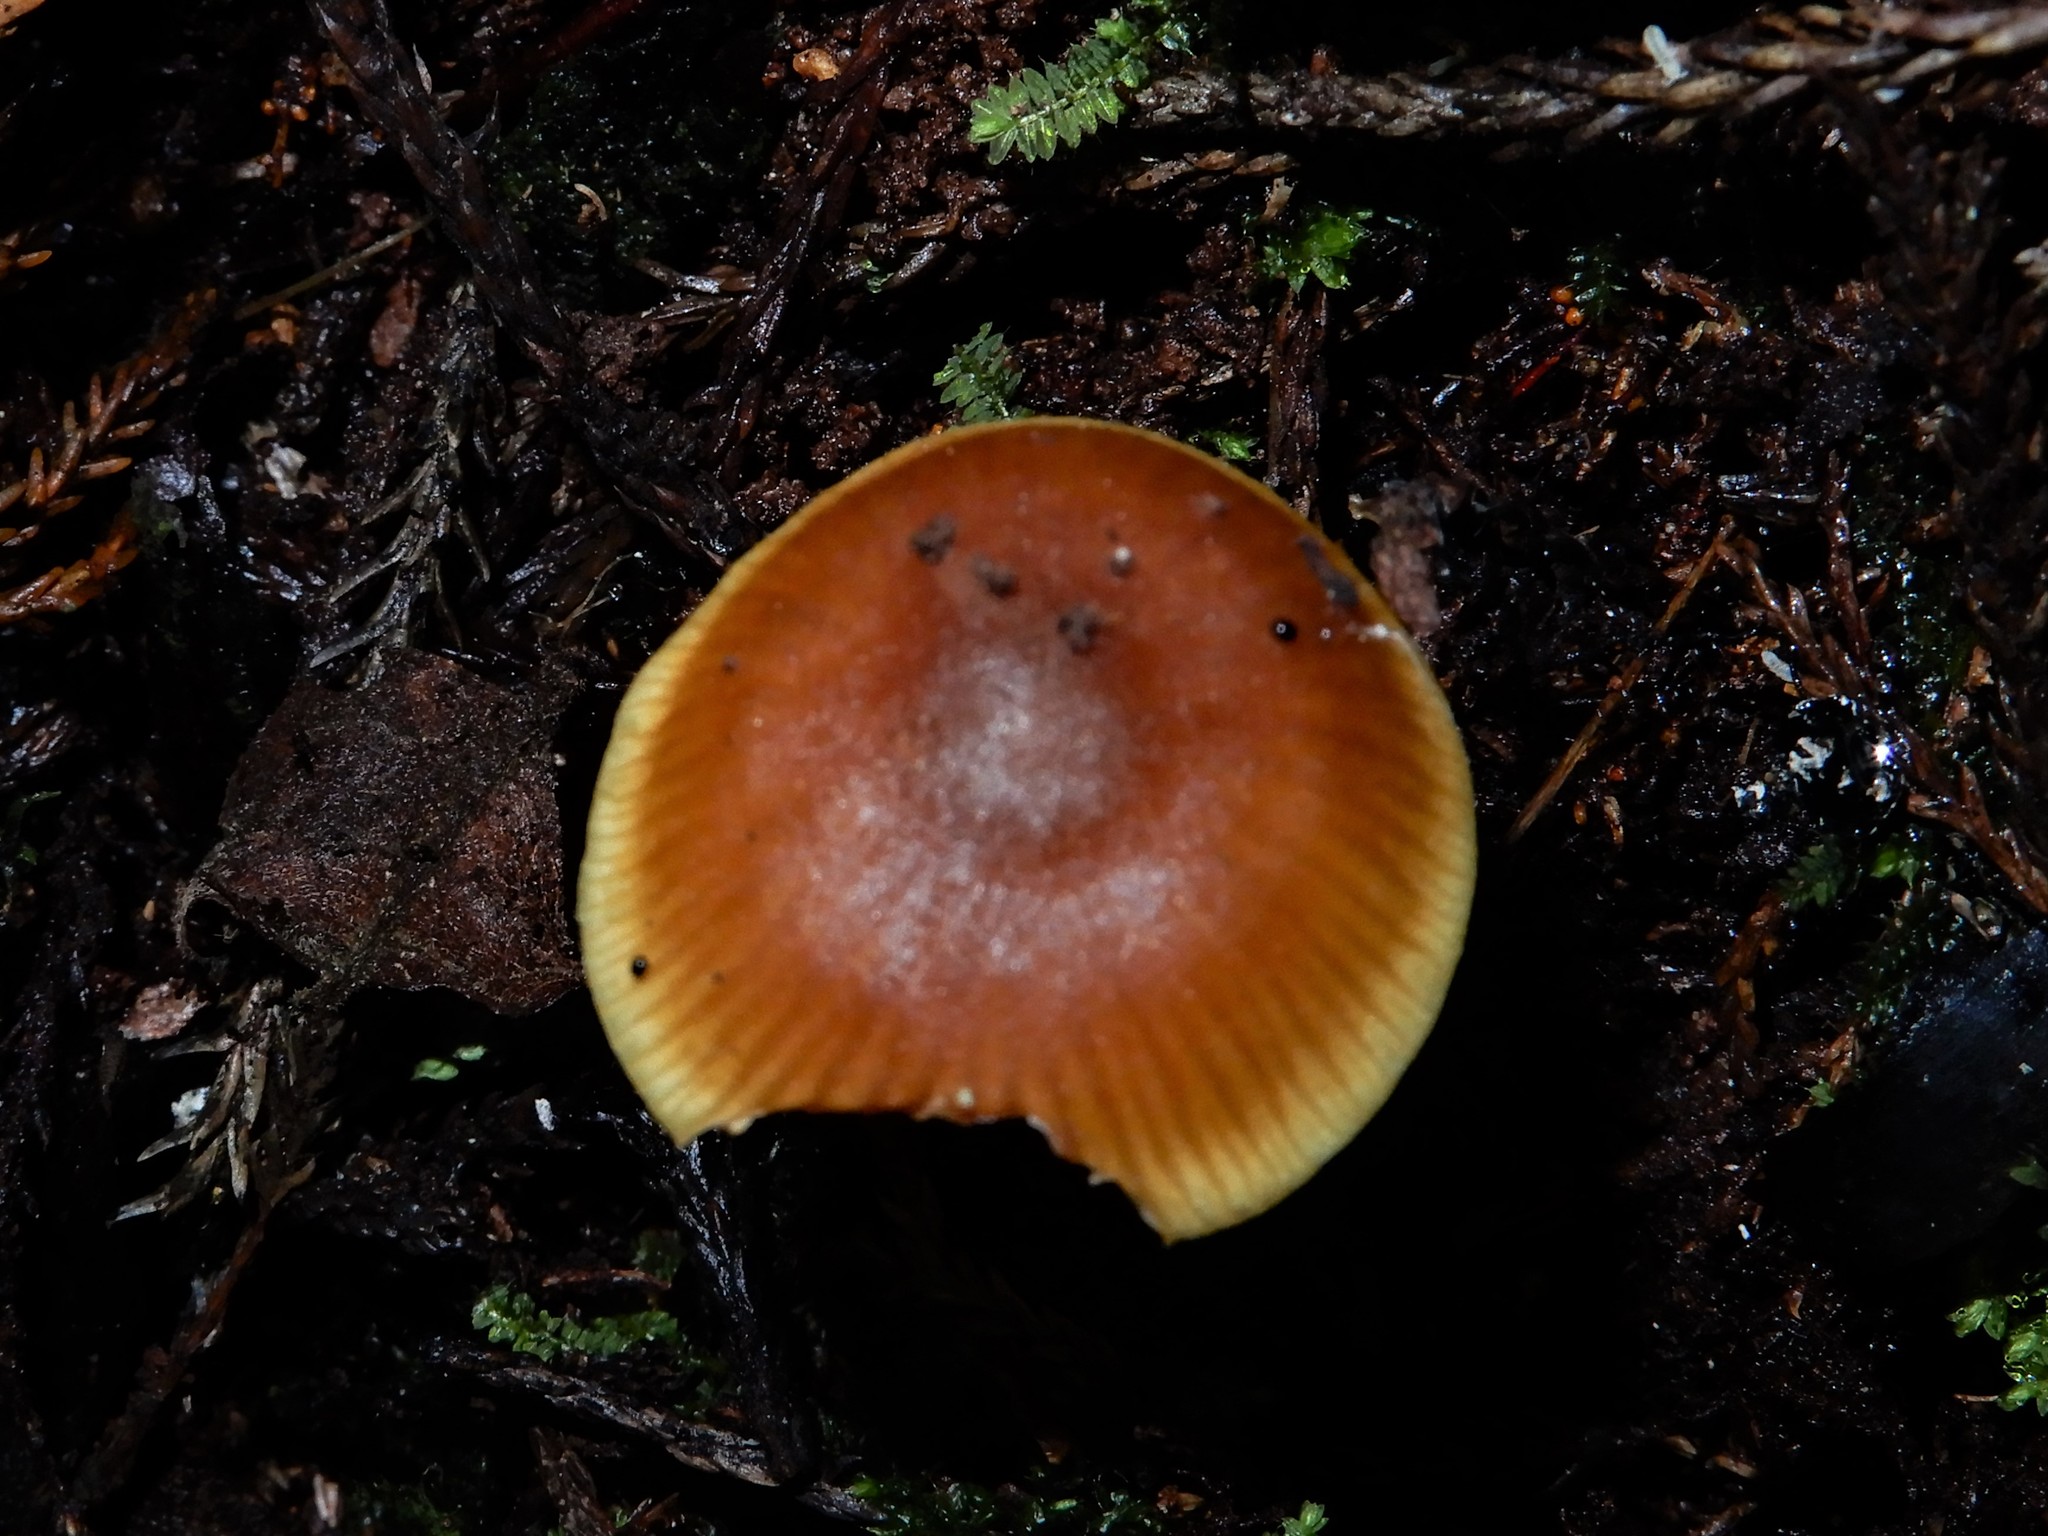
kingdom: Fungi
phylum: Basidiomycota
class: Agaricomycetes
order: Agaricales
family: Omphalotaceae
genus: Rhodocollybia
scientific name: Rhodocollybia
